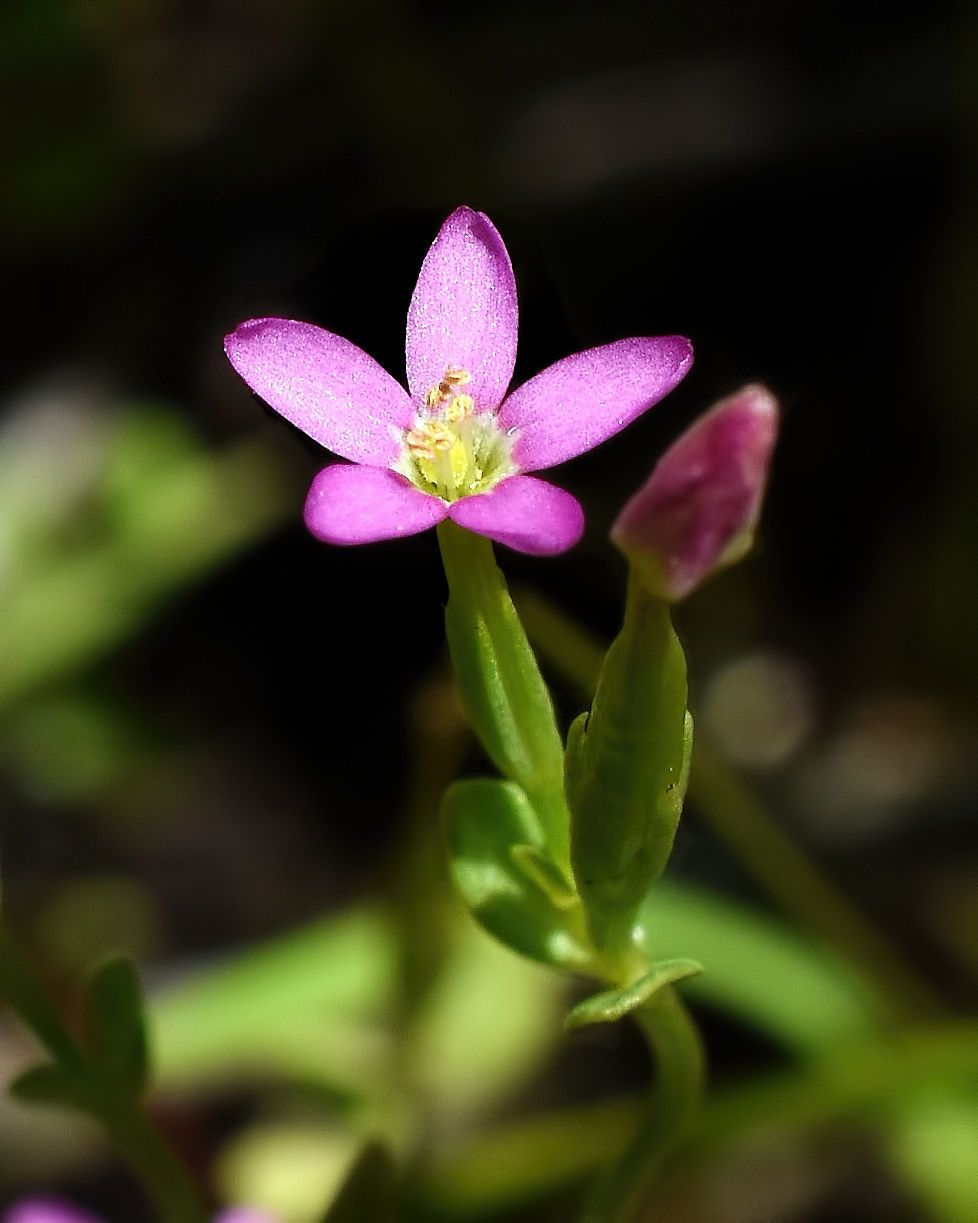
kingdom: Plantae
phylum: Tracheophyta
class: Magnoliopsida
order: Gentianales
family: Gentianaceae
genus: Centaurium
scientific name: Centaurium pulchellum
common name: Lesser centaury
